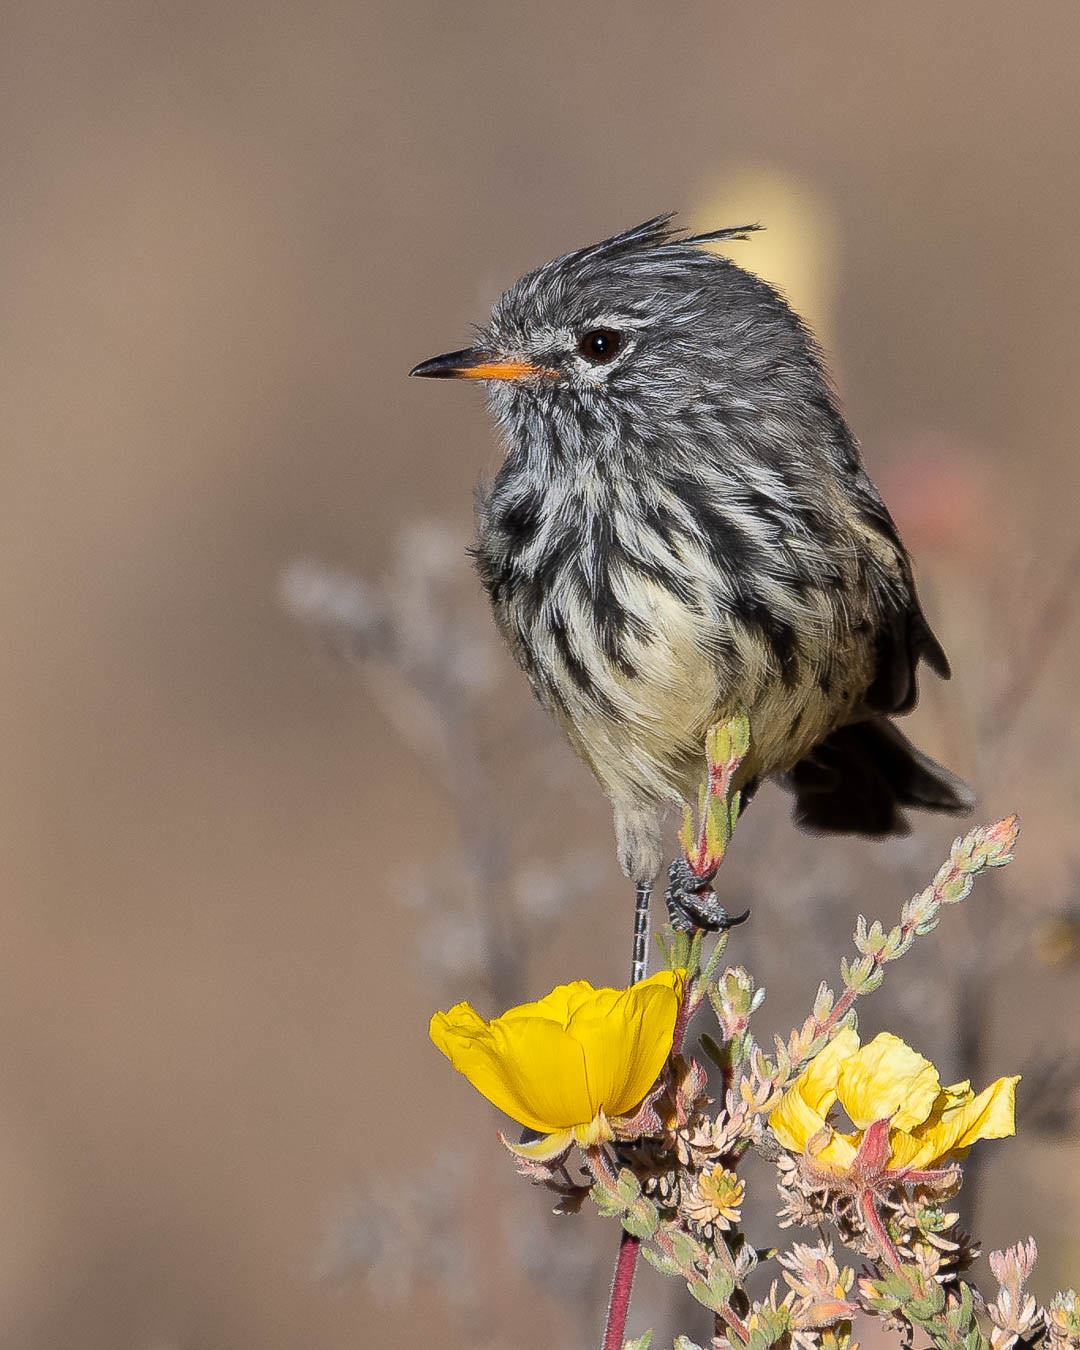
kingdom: Animalia
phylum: Chordata
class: Aves
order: Passeriformes
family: Tyrannidae
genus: Anairetes
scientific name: Anairetes flavirostris
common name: Yellow-billed tit-tyrant
